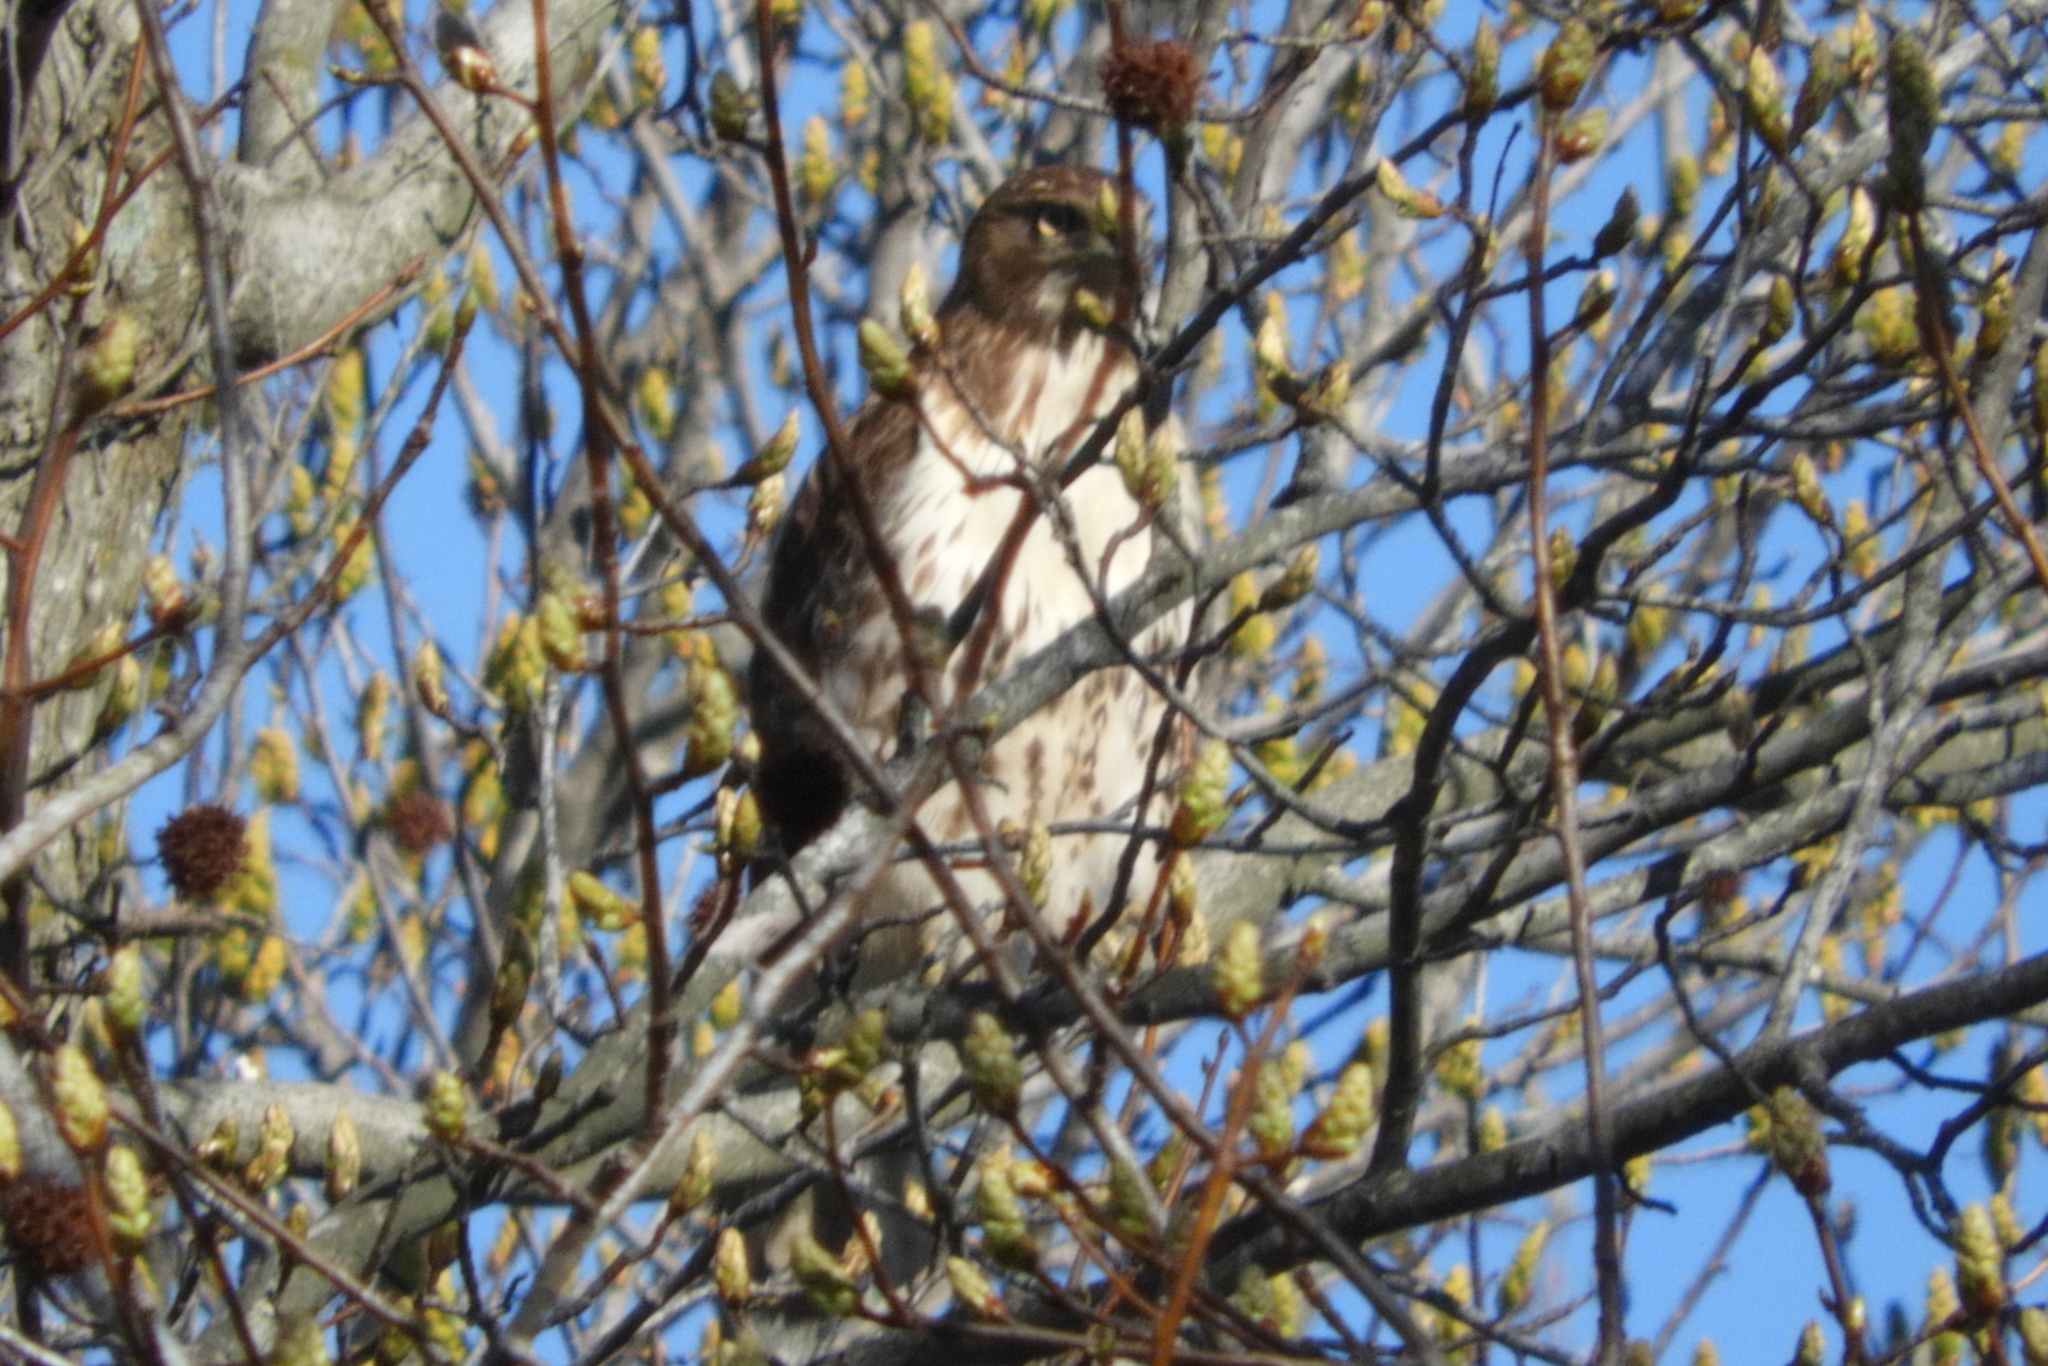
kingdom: Animalia
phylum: Chordata
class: Aves
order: Accipitriformes
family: Accipitridae
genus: Buteo
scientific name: Buteo jamaicensis
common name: Red-tailed hawk
